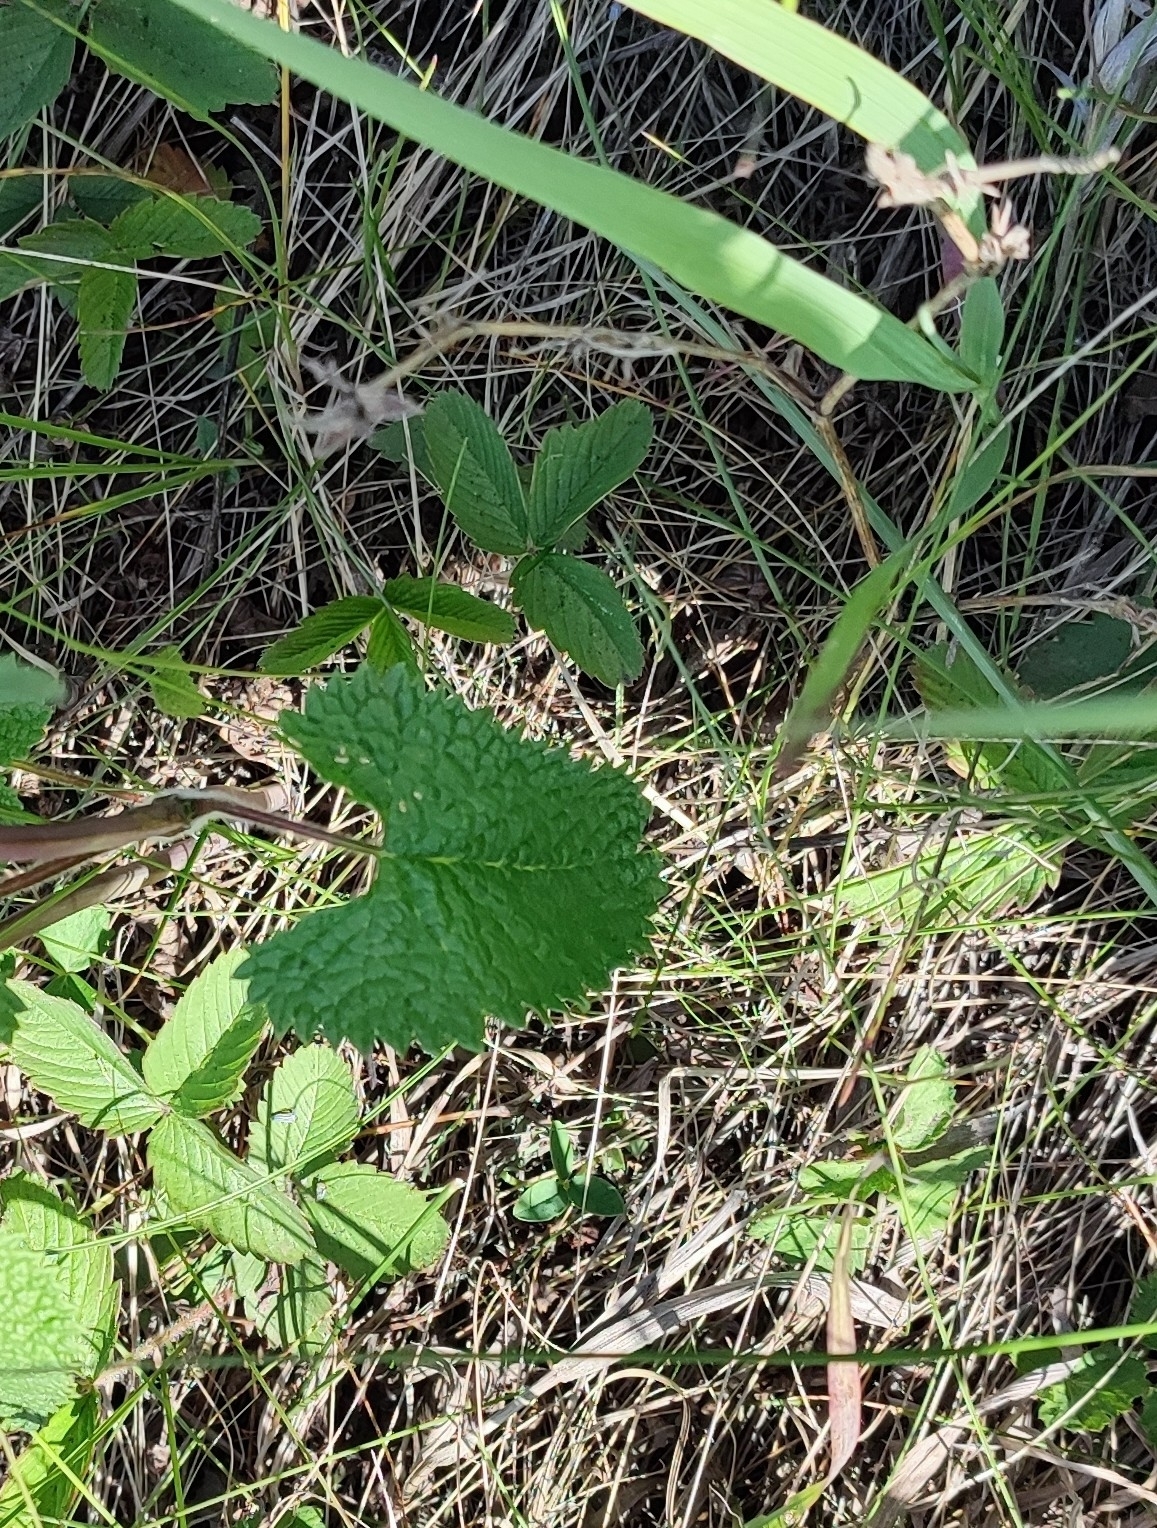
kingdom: Plantae
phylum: Tracheophyta
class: Magnoliopsida
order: Lamiales
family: Lamiaceae
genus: Phlomoides
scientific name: Phlomoides tuberosa
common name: Tuberous jerusalem sage
